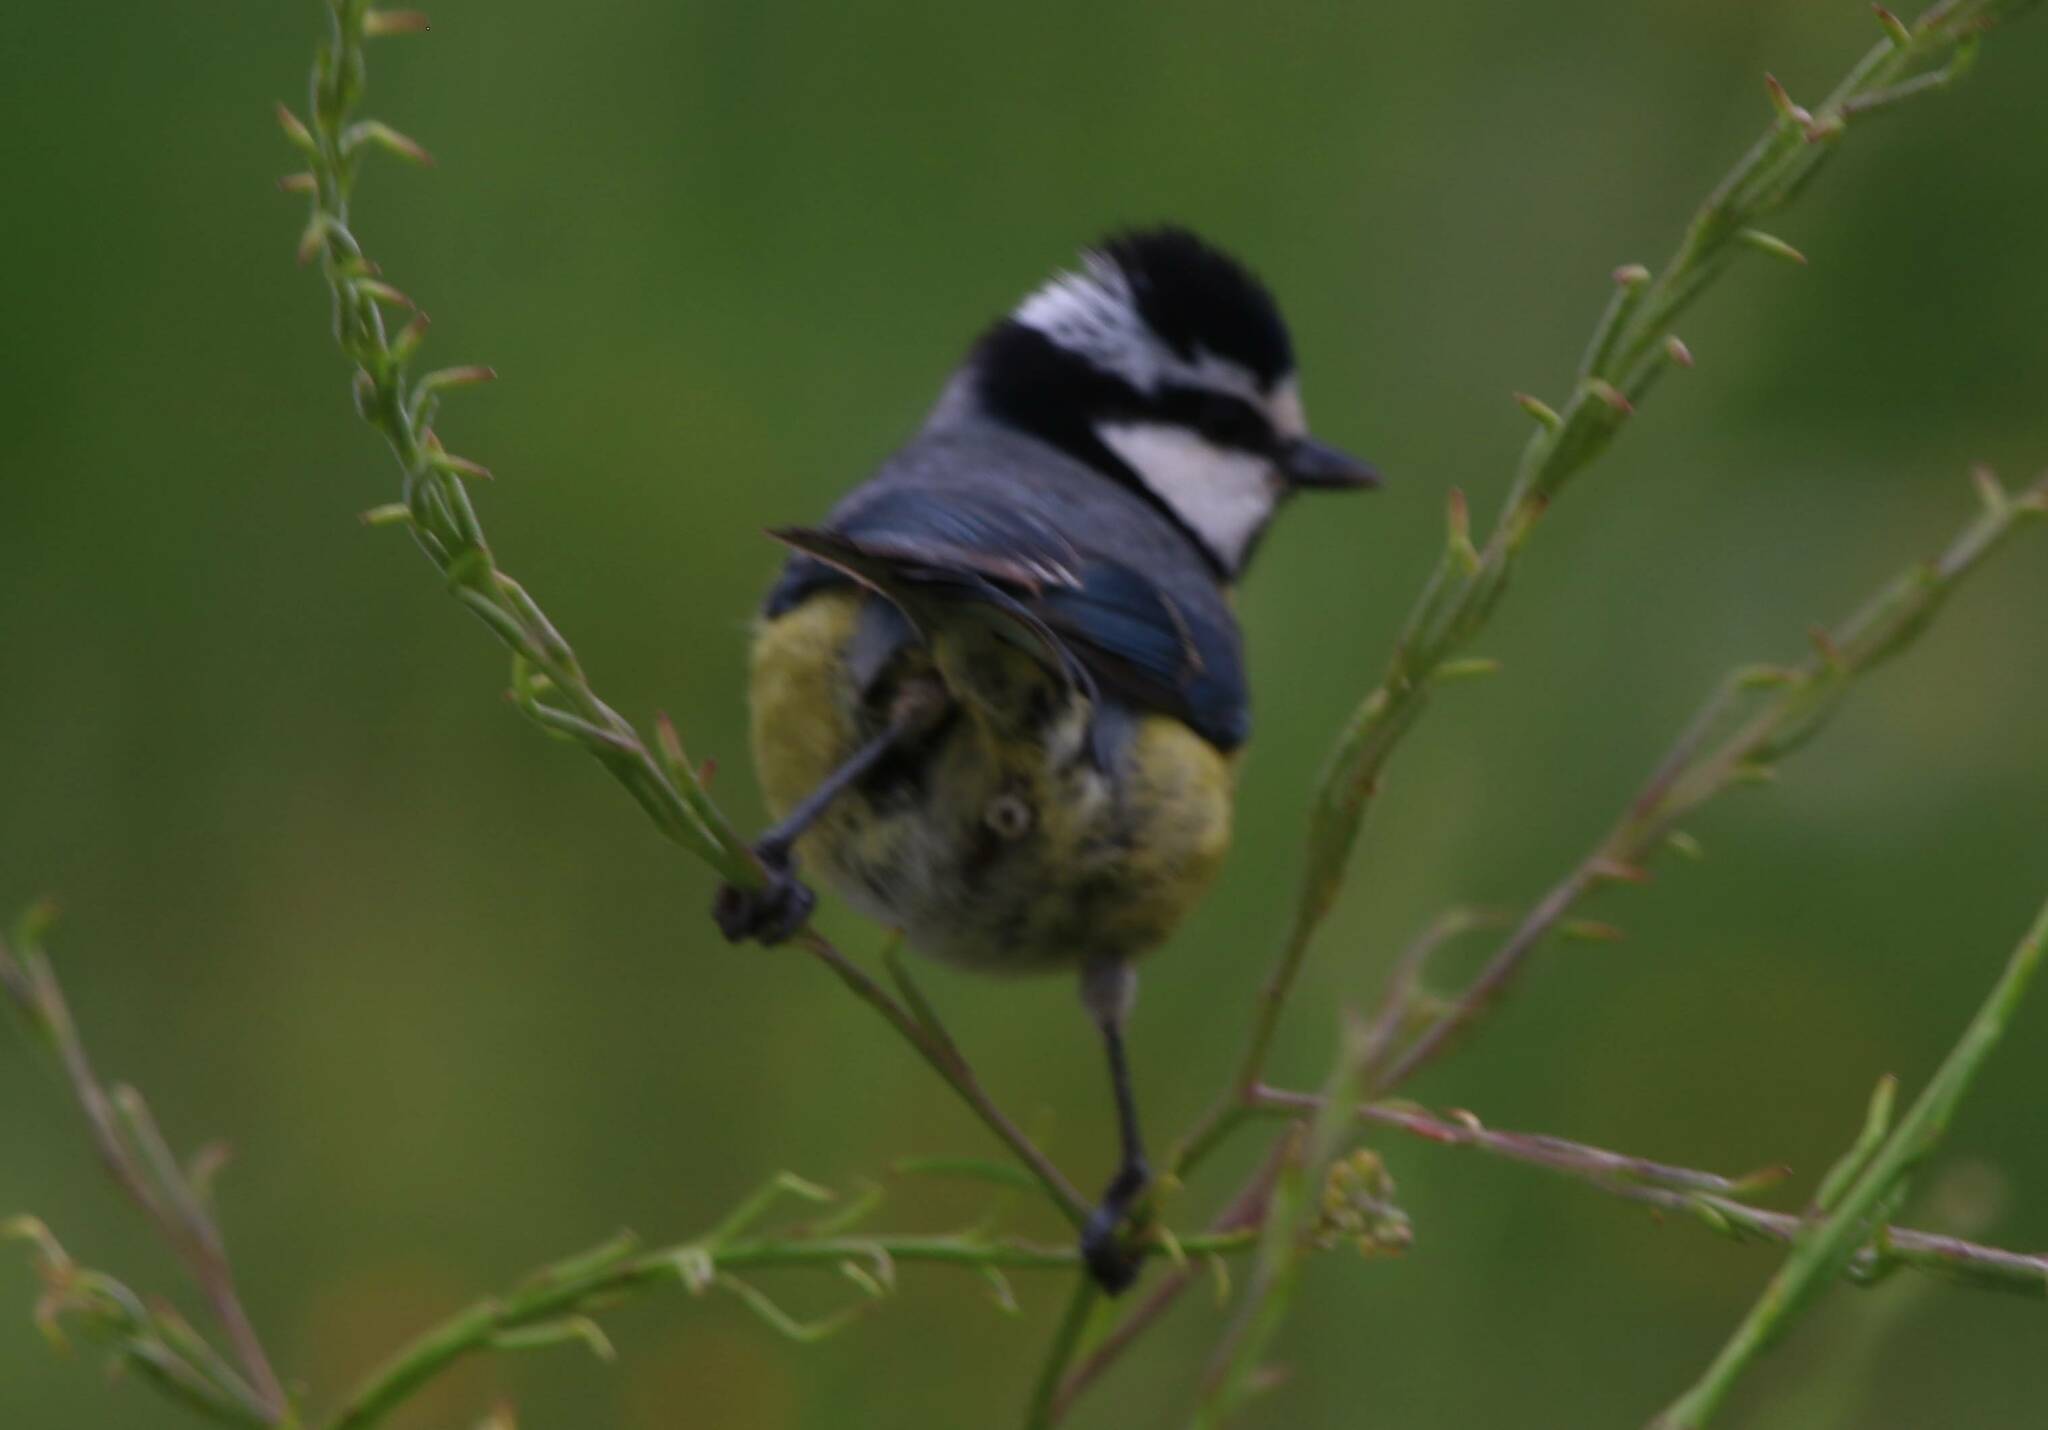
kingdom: Animalia
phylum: Chordata
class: Aves
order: Passeriformes
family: Paridae
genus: Cyanistes
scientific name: Cyanistes teneriffae
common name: African blue tit
